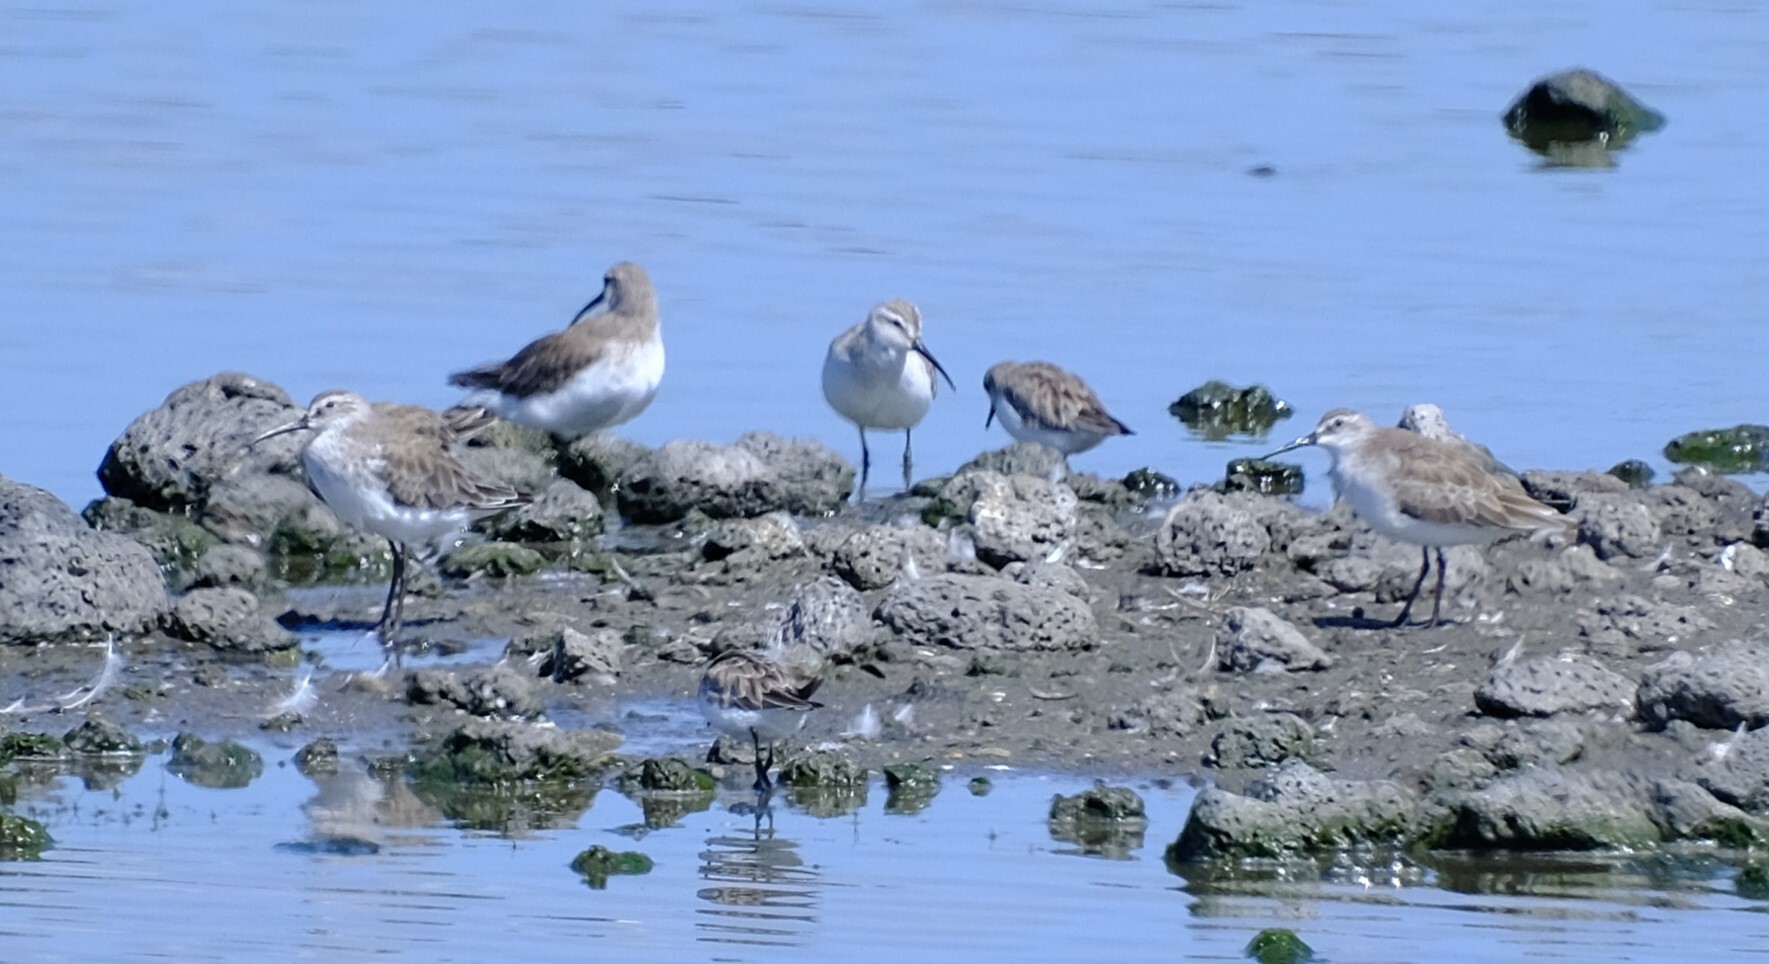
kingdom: Animalia
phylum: Chordata
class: Aves
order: Charadriiformes
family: Scolopacidae
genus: Calidris
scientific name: Calidris ferruginea
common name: Curlew sandpiper
